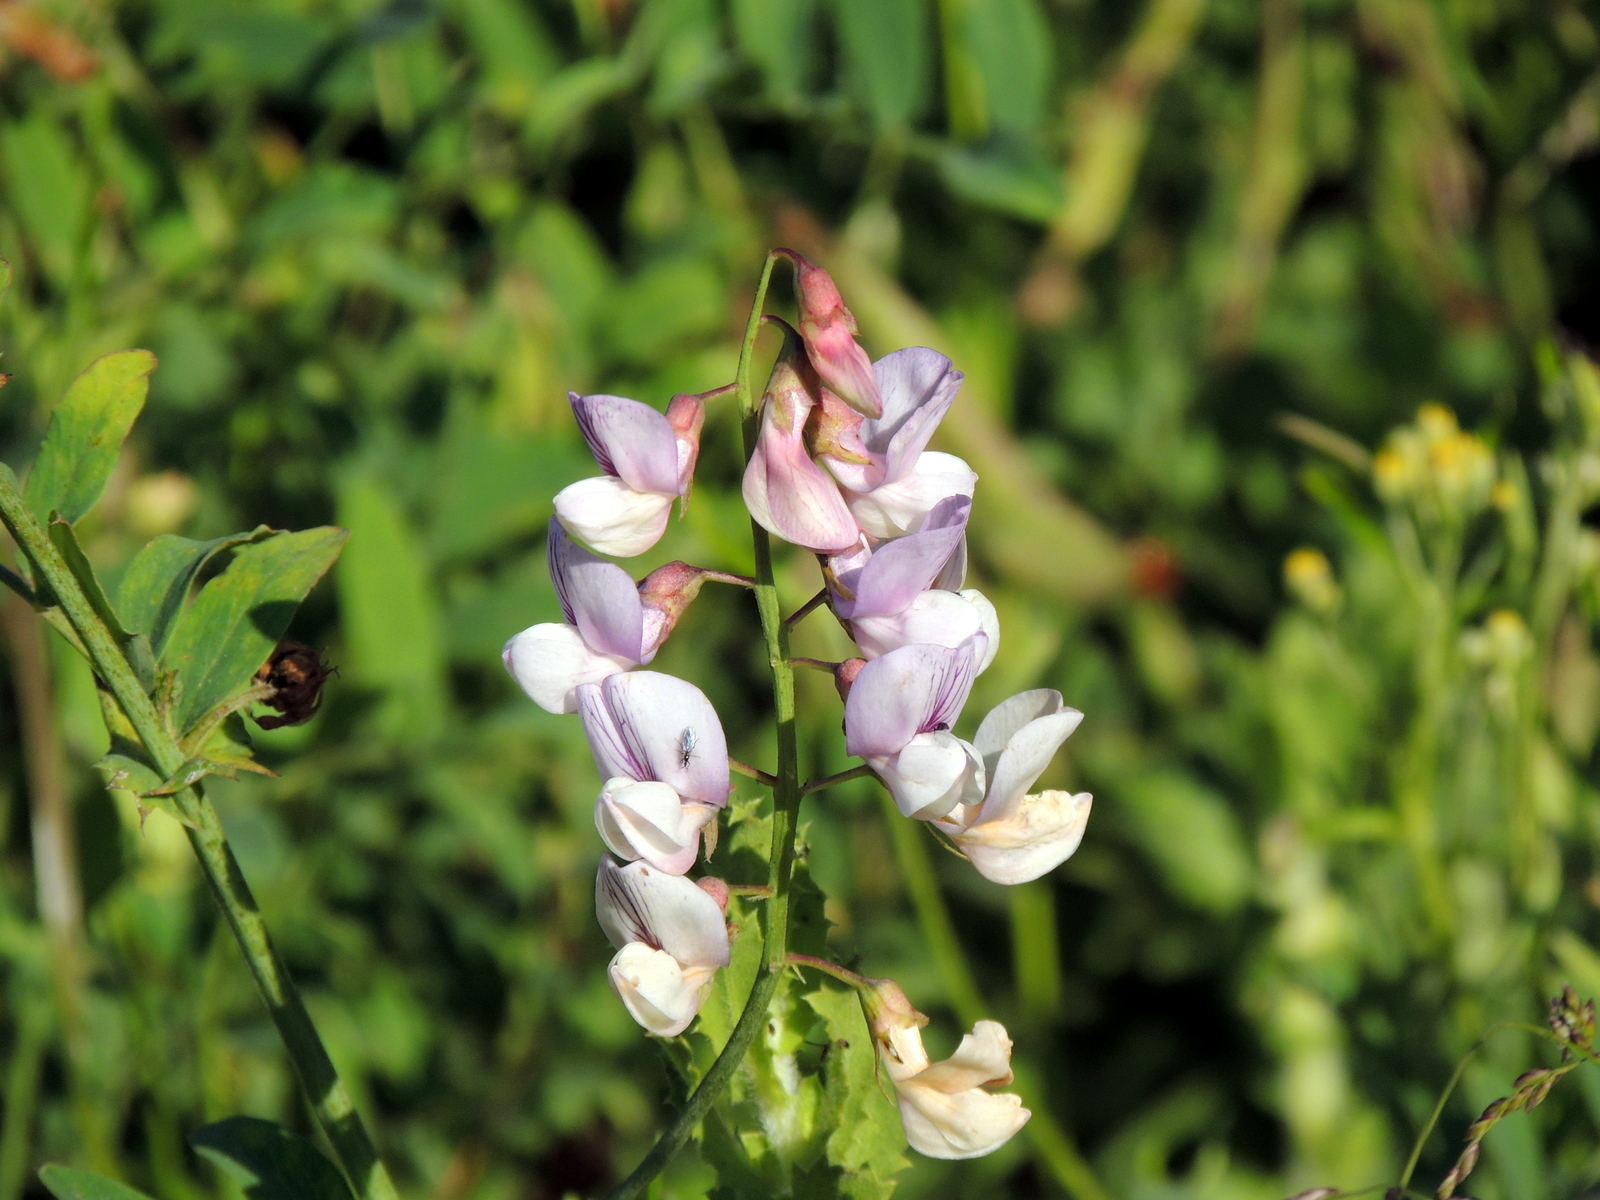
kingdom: Plantae
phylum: Tracheophyta
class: Magnoliopsida
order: Fabales
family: Fabaceae
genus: Lathyrus
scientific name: Lathyrus vestitus
